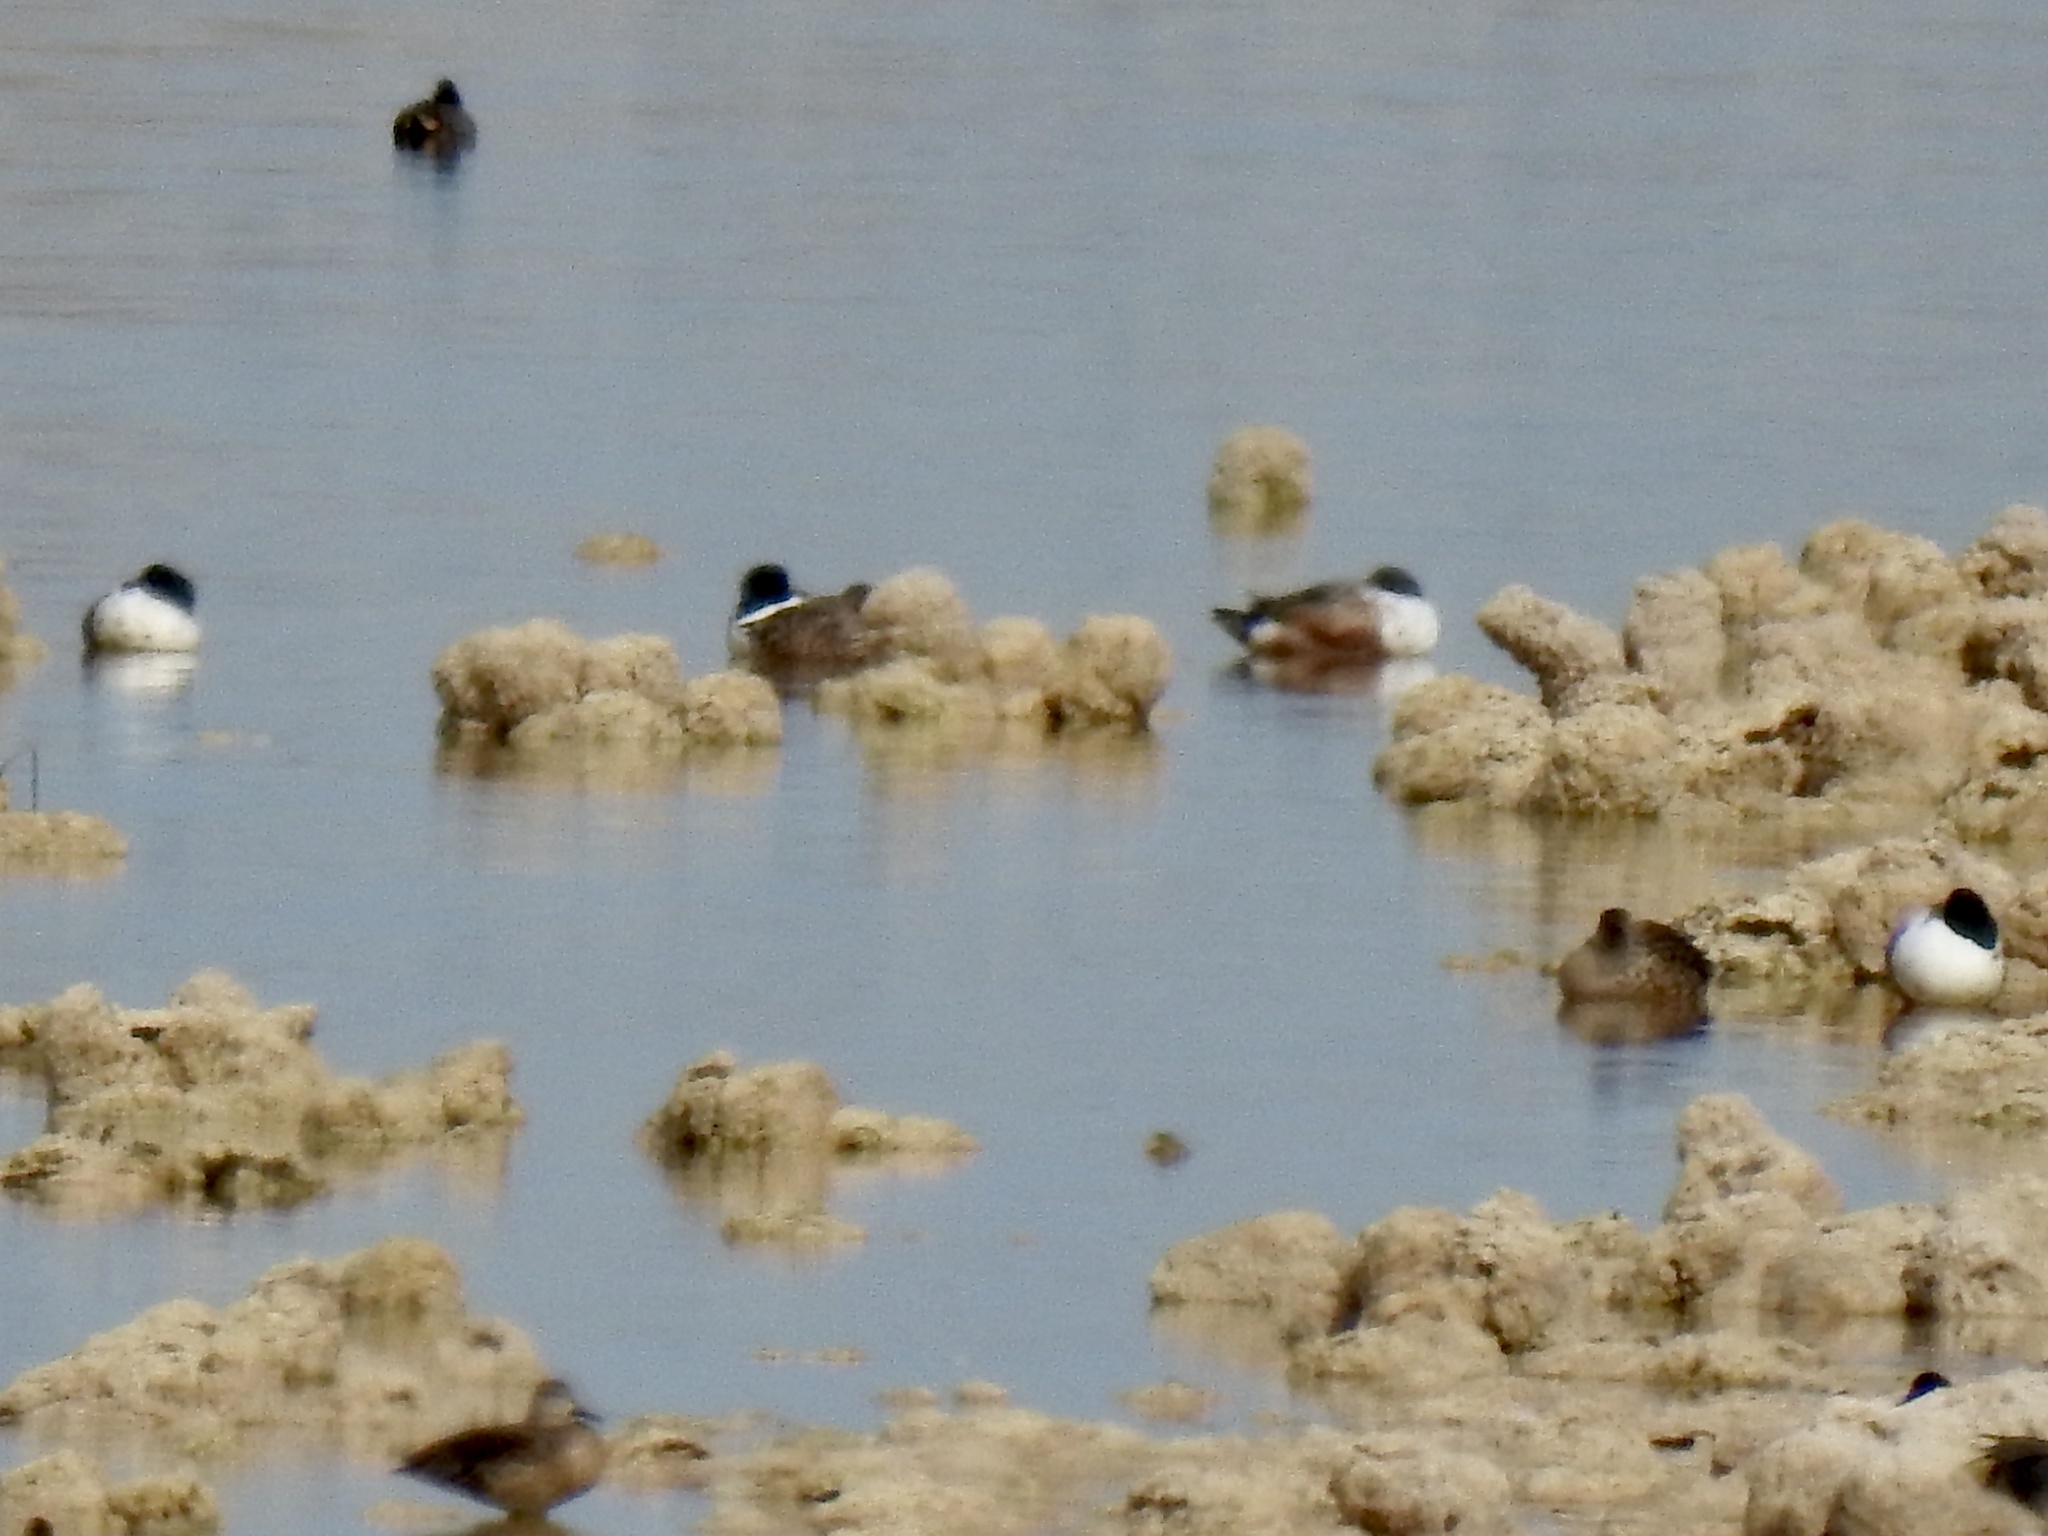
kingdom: Animalia
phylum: Chordata
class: Aves
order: Anseriformes
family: Anatidae
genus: Spatula
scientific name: Spatula clypeata
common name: Northern shoveler
